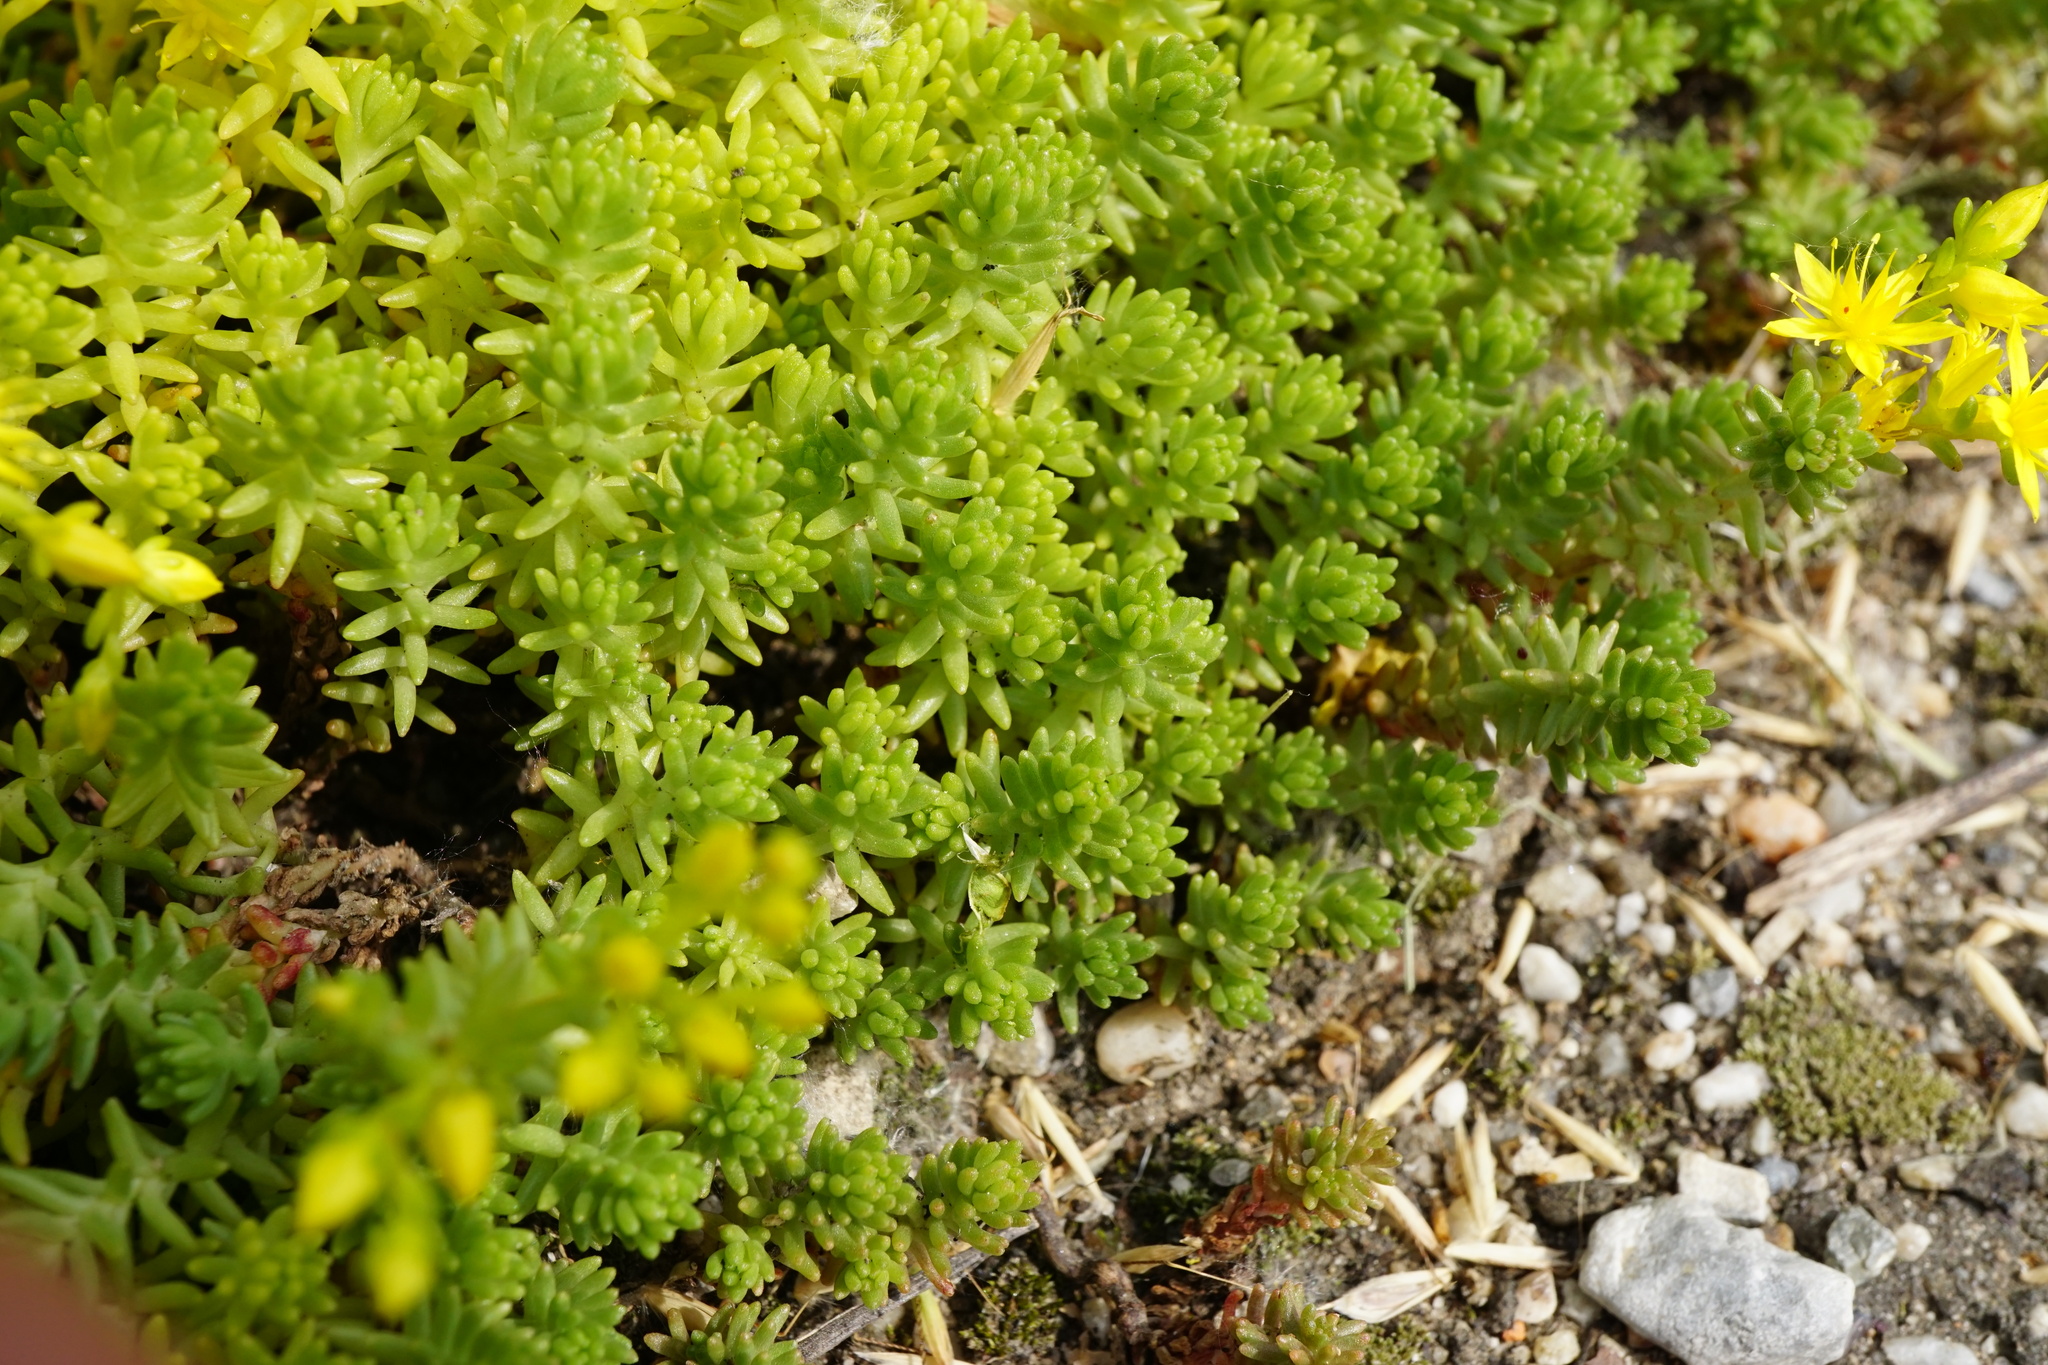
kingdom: Plantae
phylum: Tracheophyta
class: Magnoliopsida
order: Saxifragales
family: Crassulaceae
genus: Sedum
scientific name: Sedum sexangulare
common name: Tasteless stonecrop
